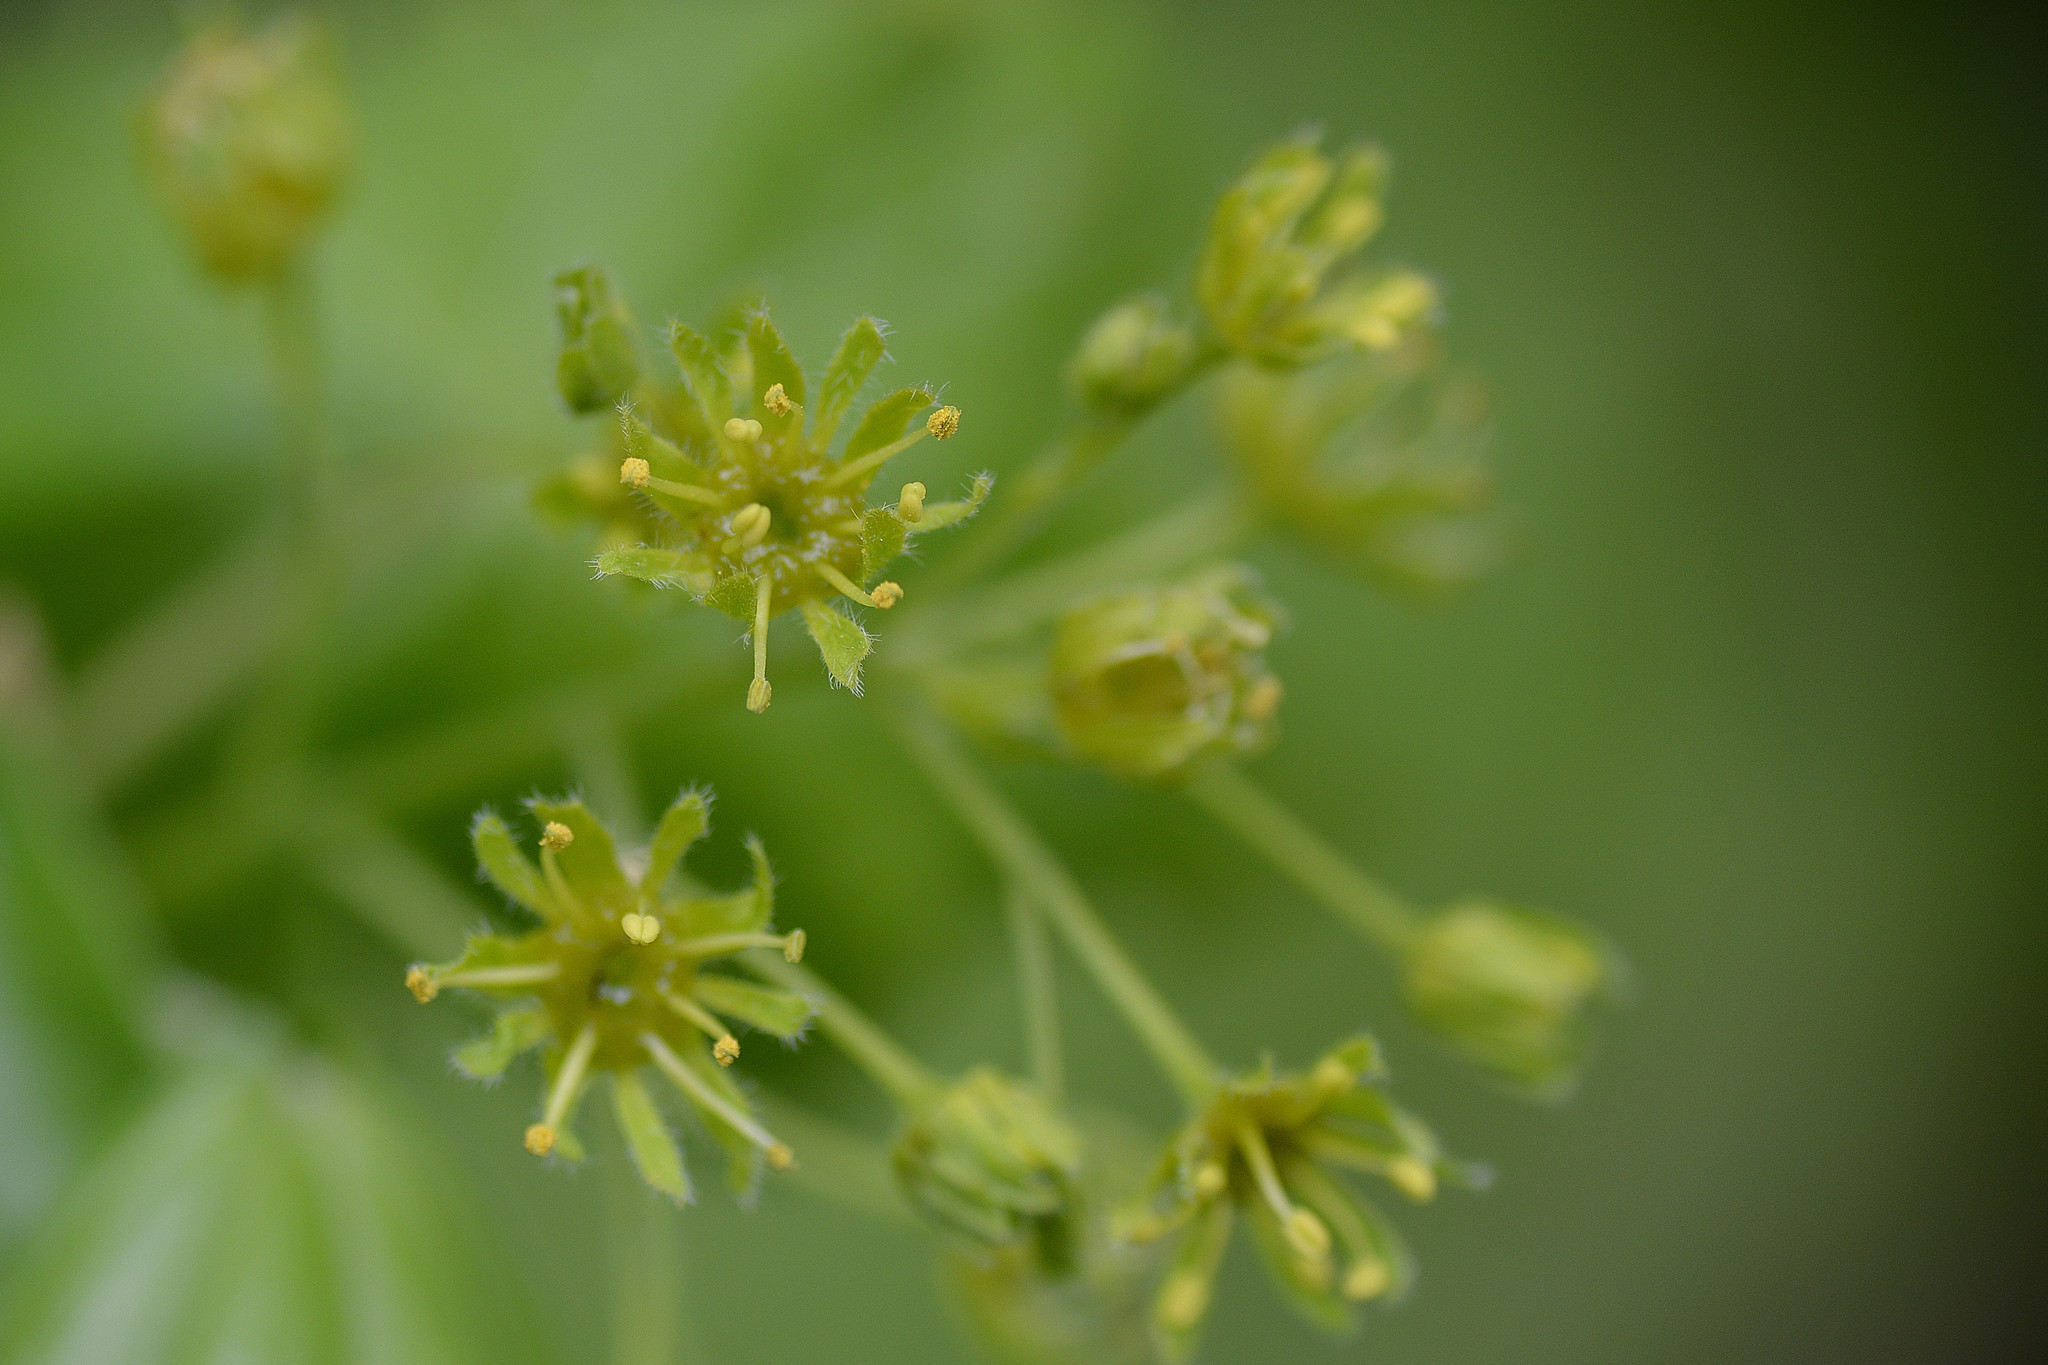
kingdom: Plantae
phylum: Tracheophyta
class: Magnoliopsida
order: Sapindales
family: Sapindaceae
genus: Acer
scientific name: Acer campestre
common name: Field maple
